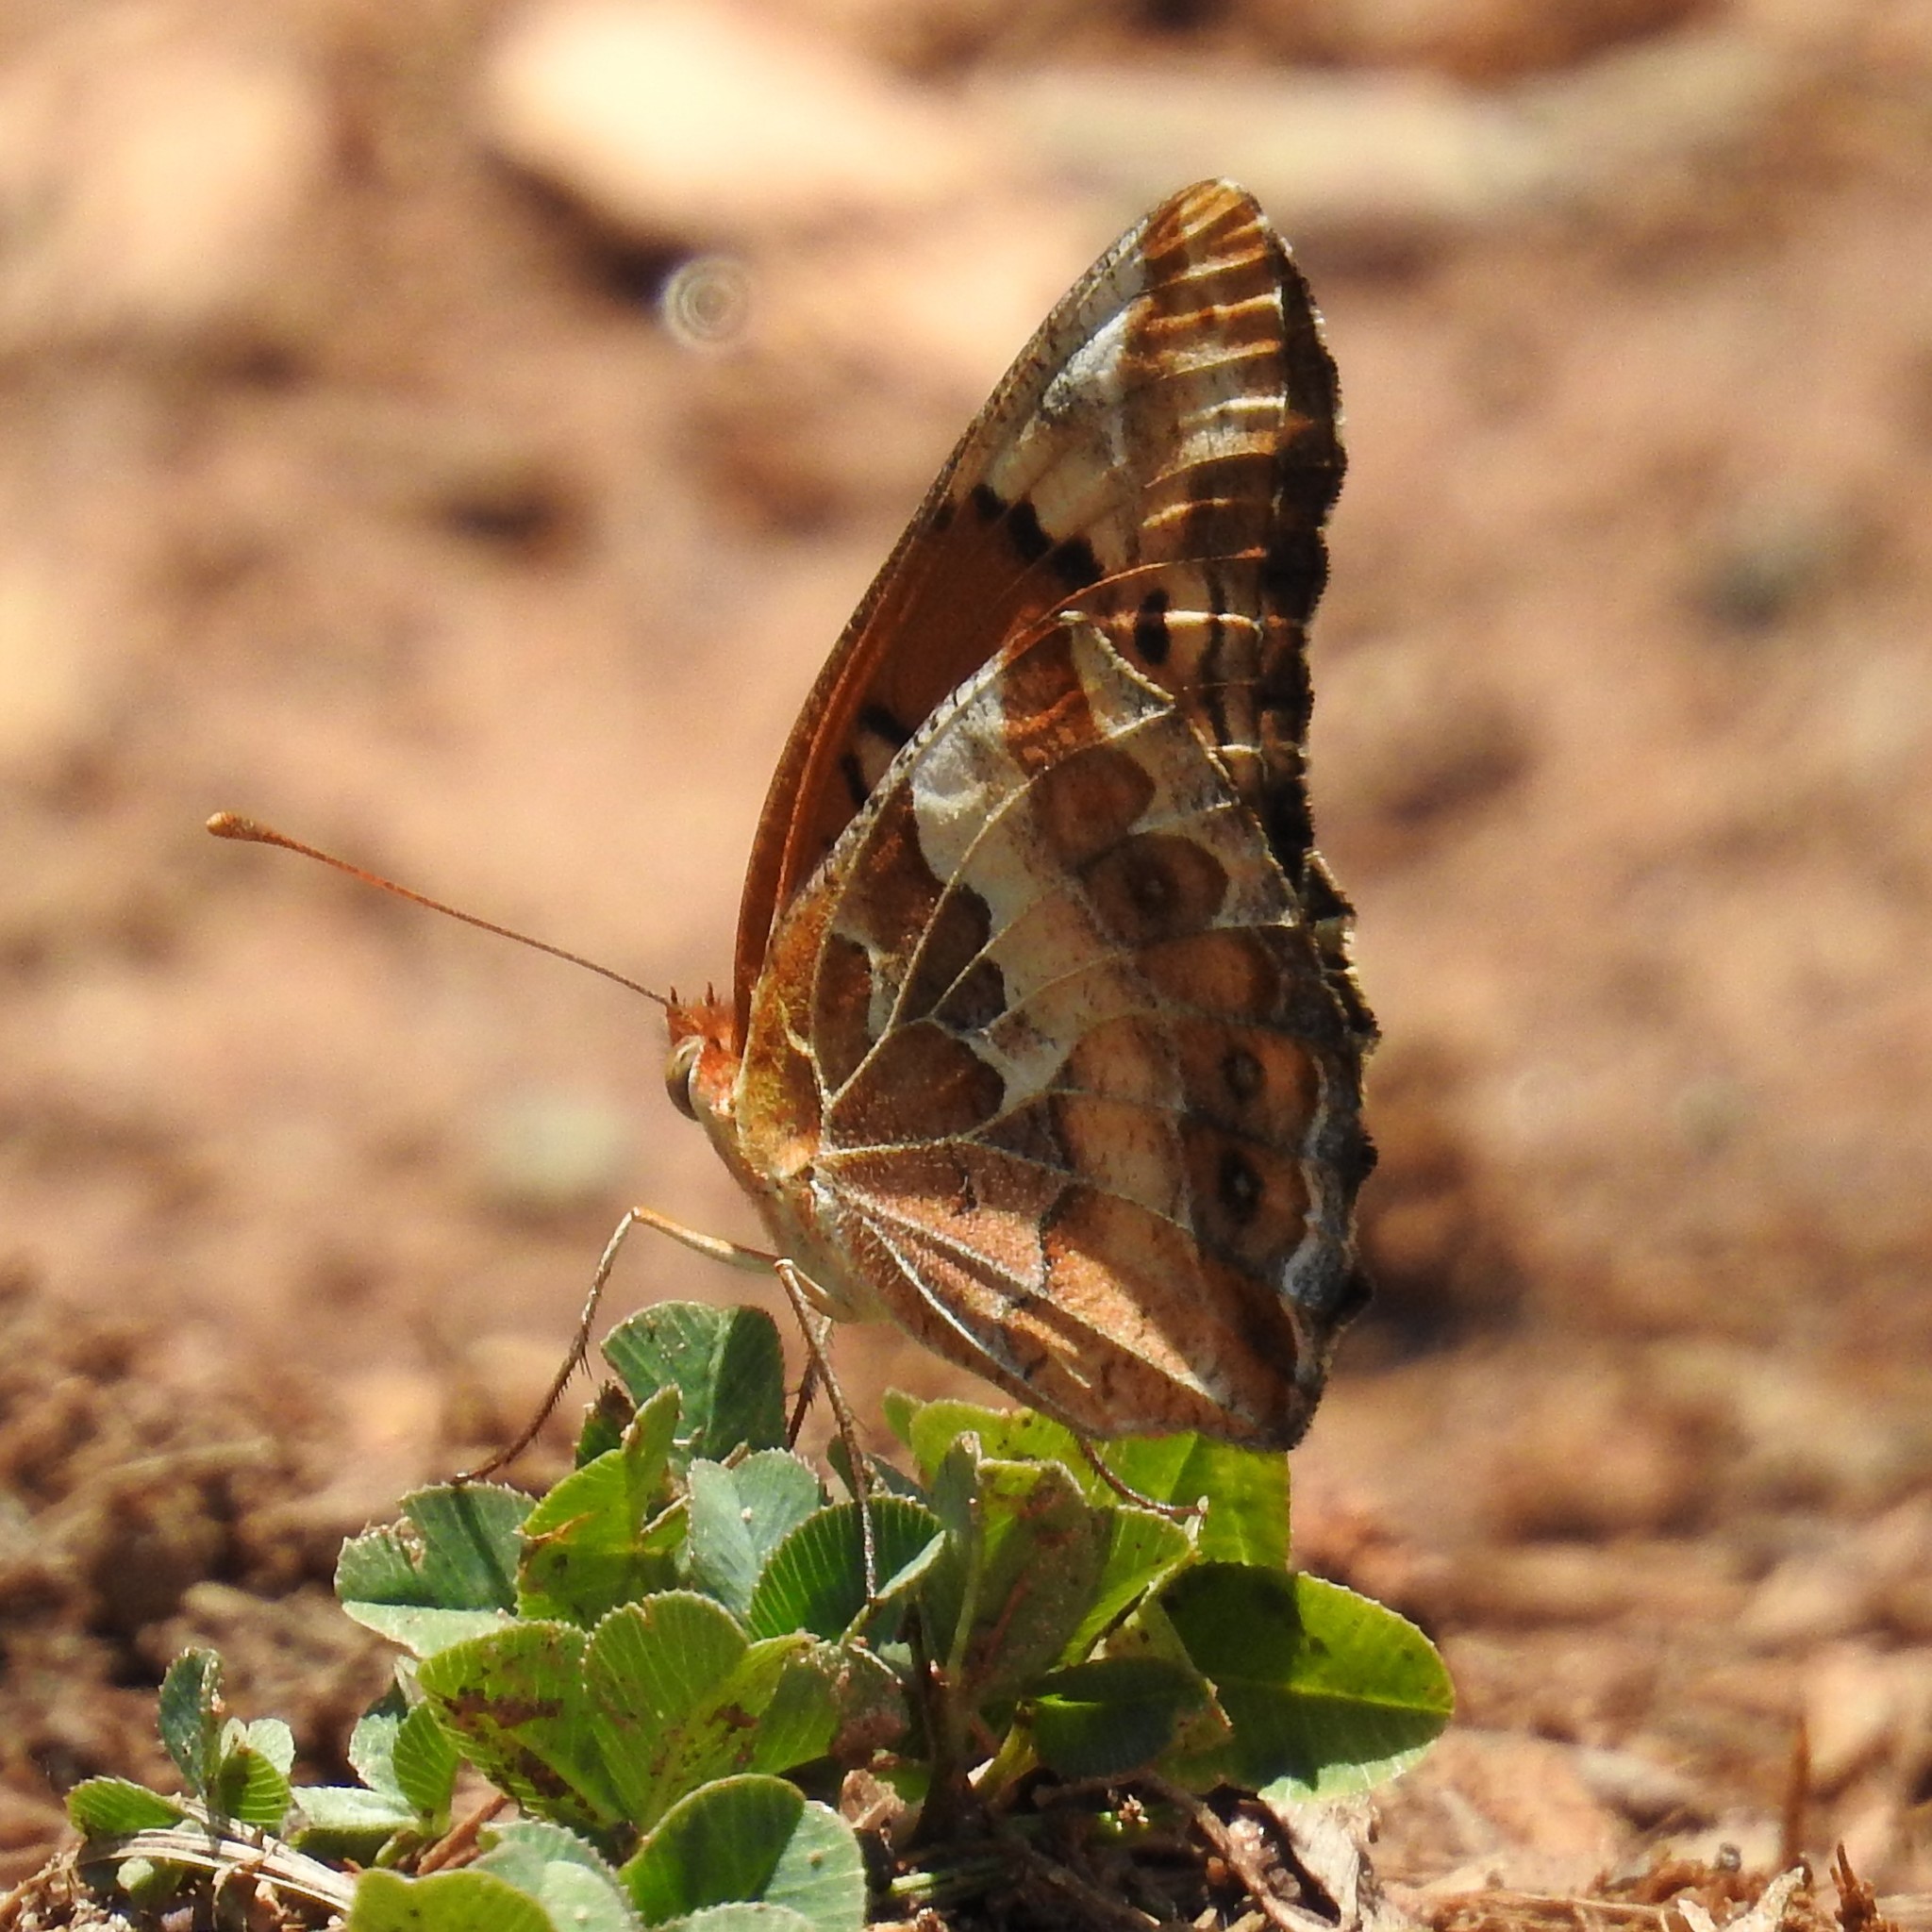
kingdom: Animalia
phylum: Arthropoda
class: Insecta
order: Lepidoptera
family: Nymphalidae
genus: Euptoieta
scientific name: Euptoieta claudia
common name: Variegated fritillary
